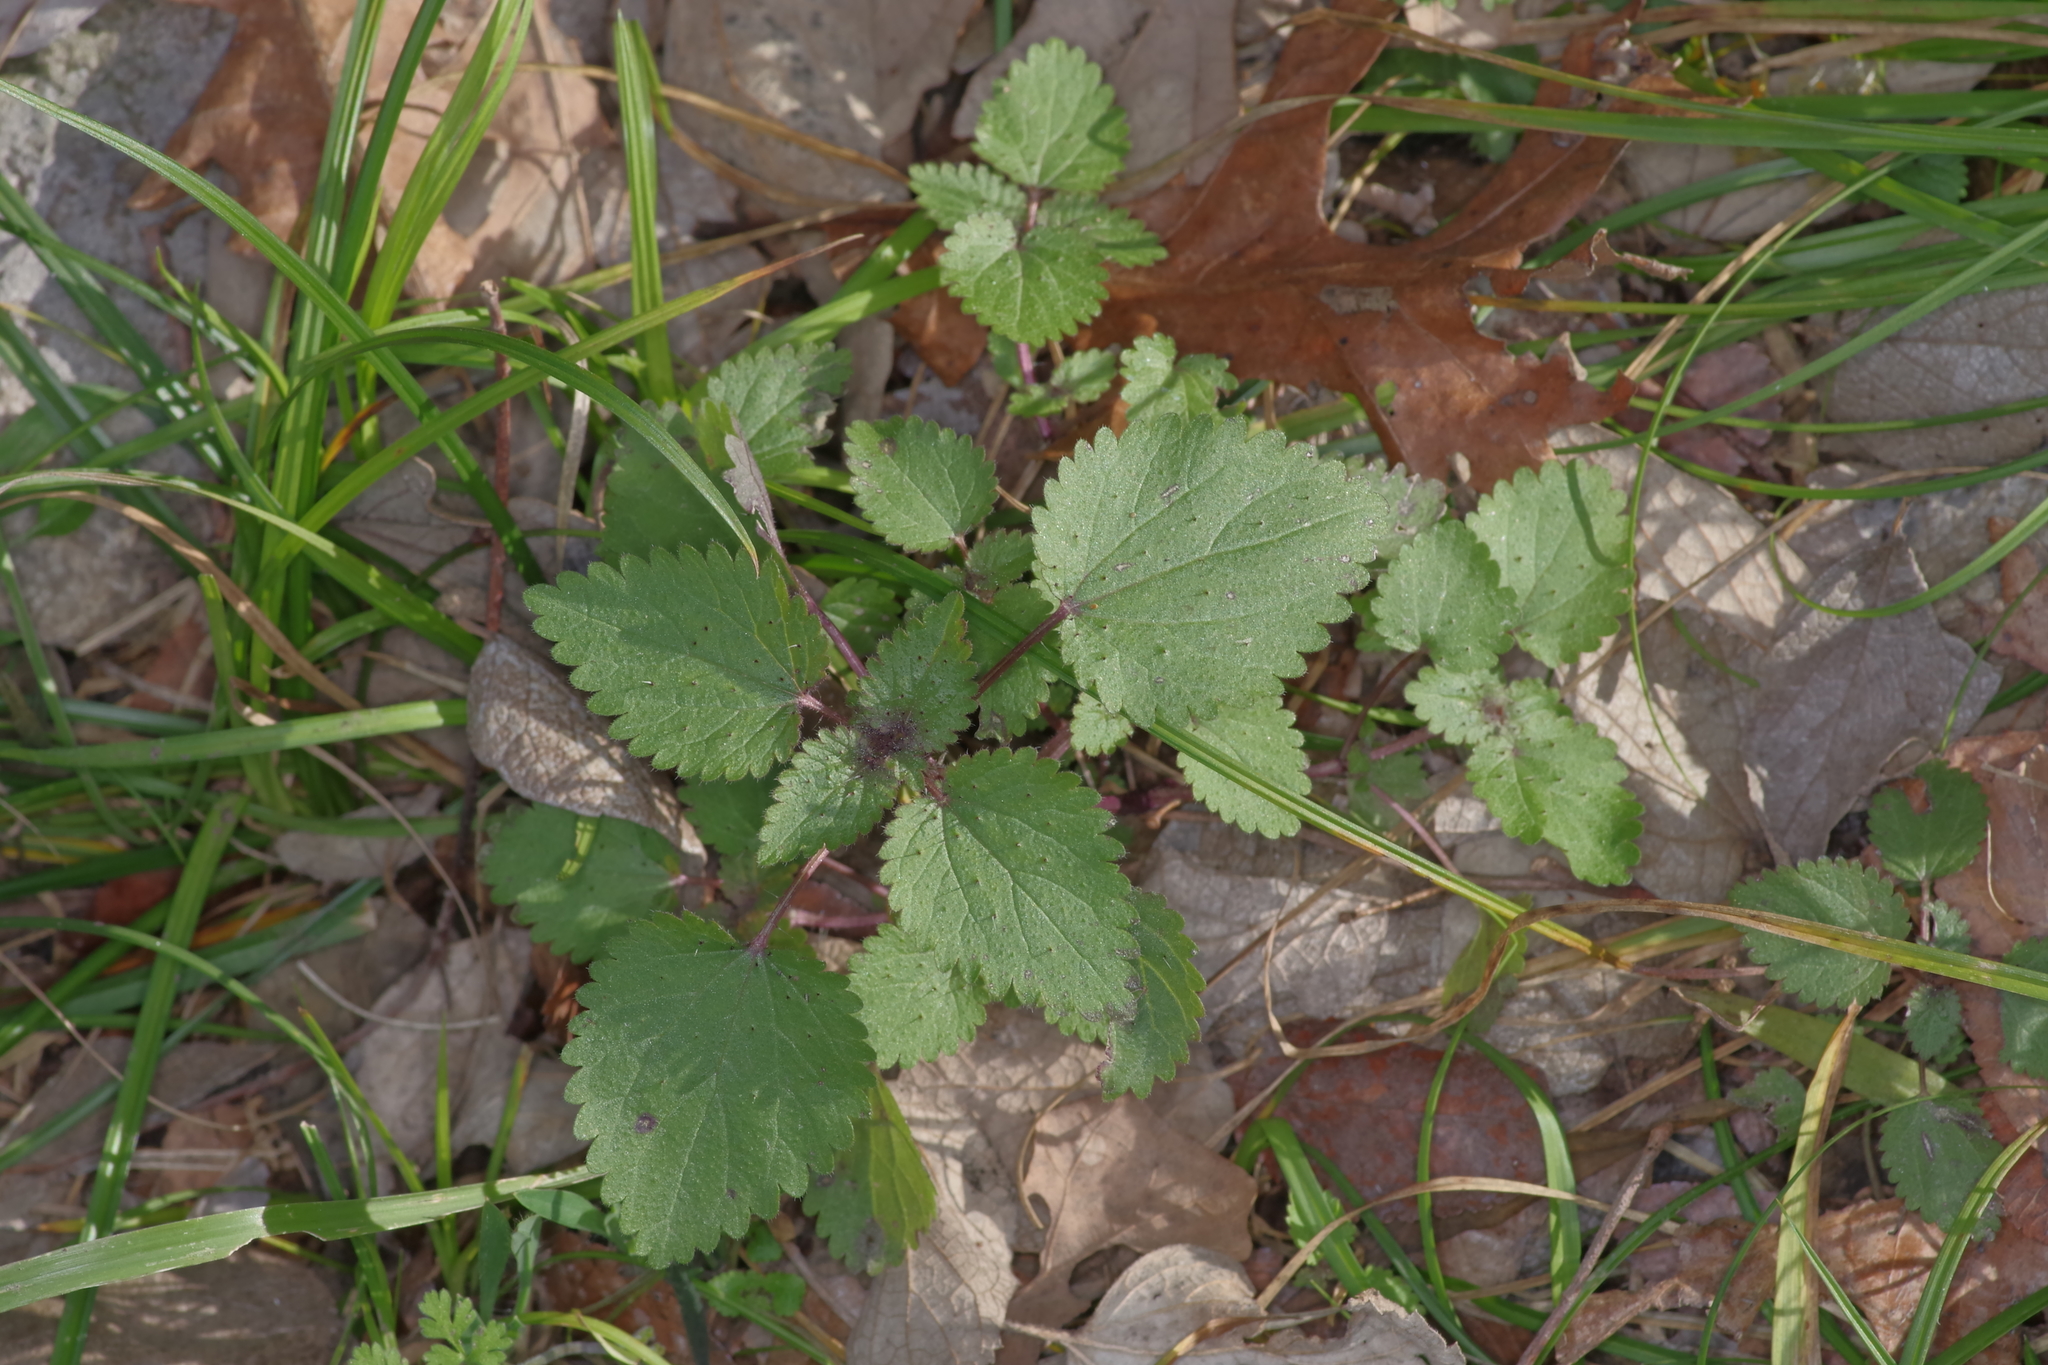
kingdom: Plantae
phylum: Tracheophyta
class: Magnoliopsida
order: Rosales
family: Urticaceae
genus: Urtica
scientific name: Urtica chamaedryoides
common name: Heart-leaf nettle
